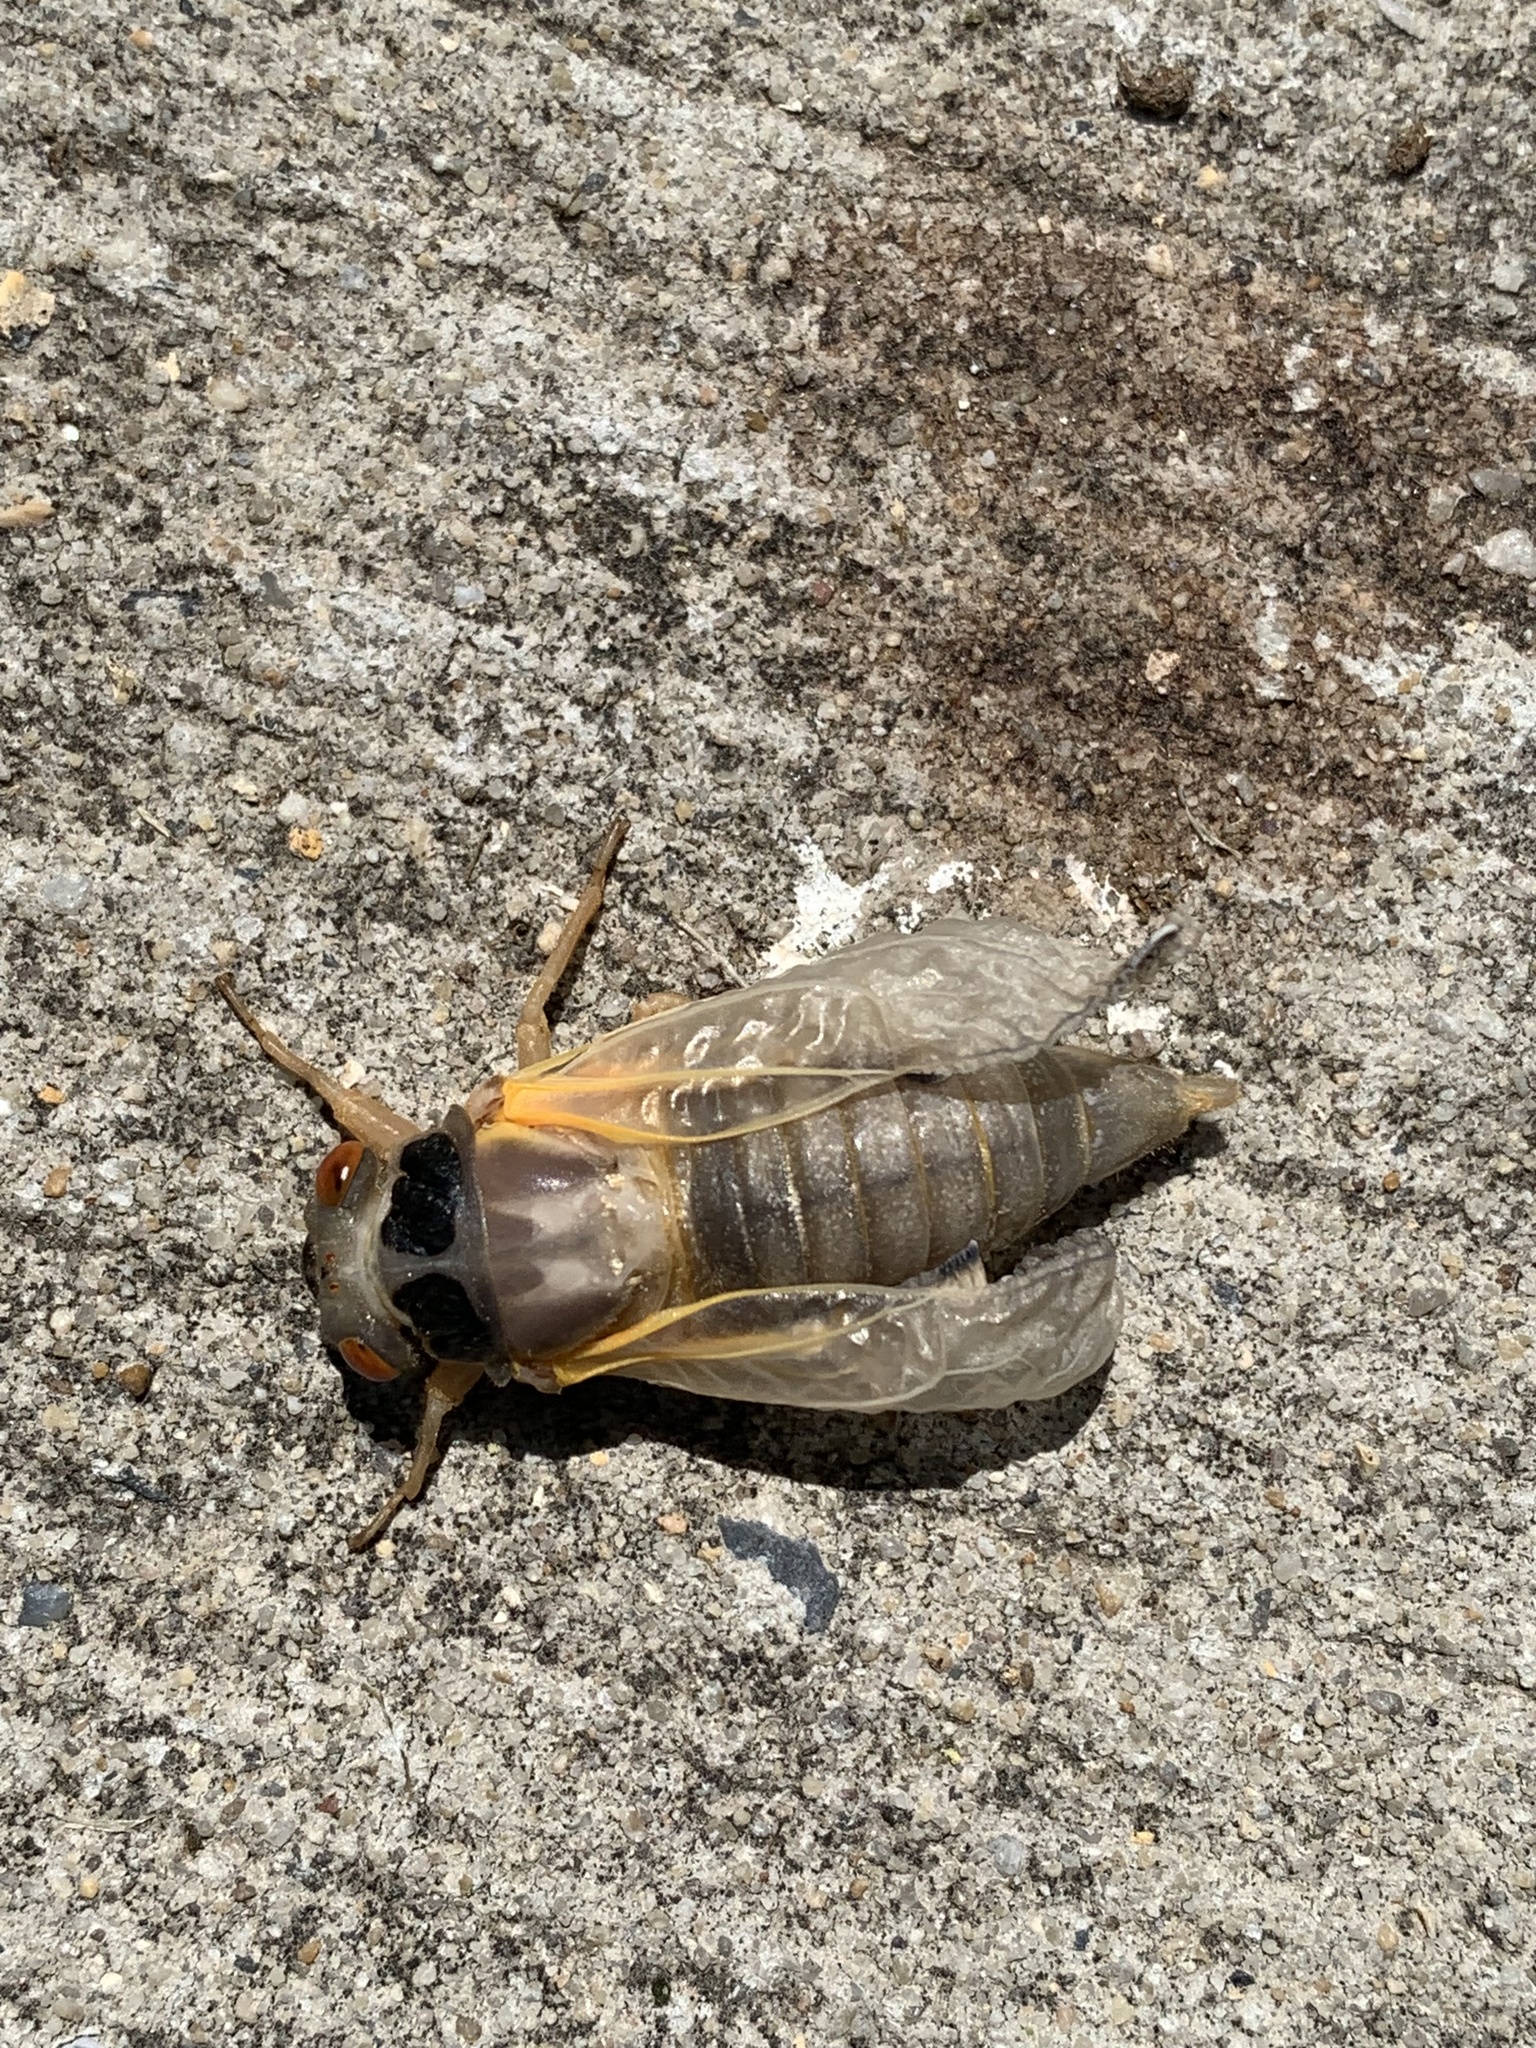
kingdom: Animalia
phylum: Arthropoda
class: Insecta
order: Hemiptera
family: Cicadidae
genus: Magicicada
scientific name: Magicicada
